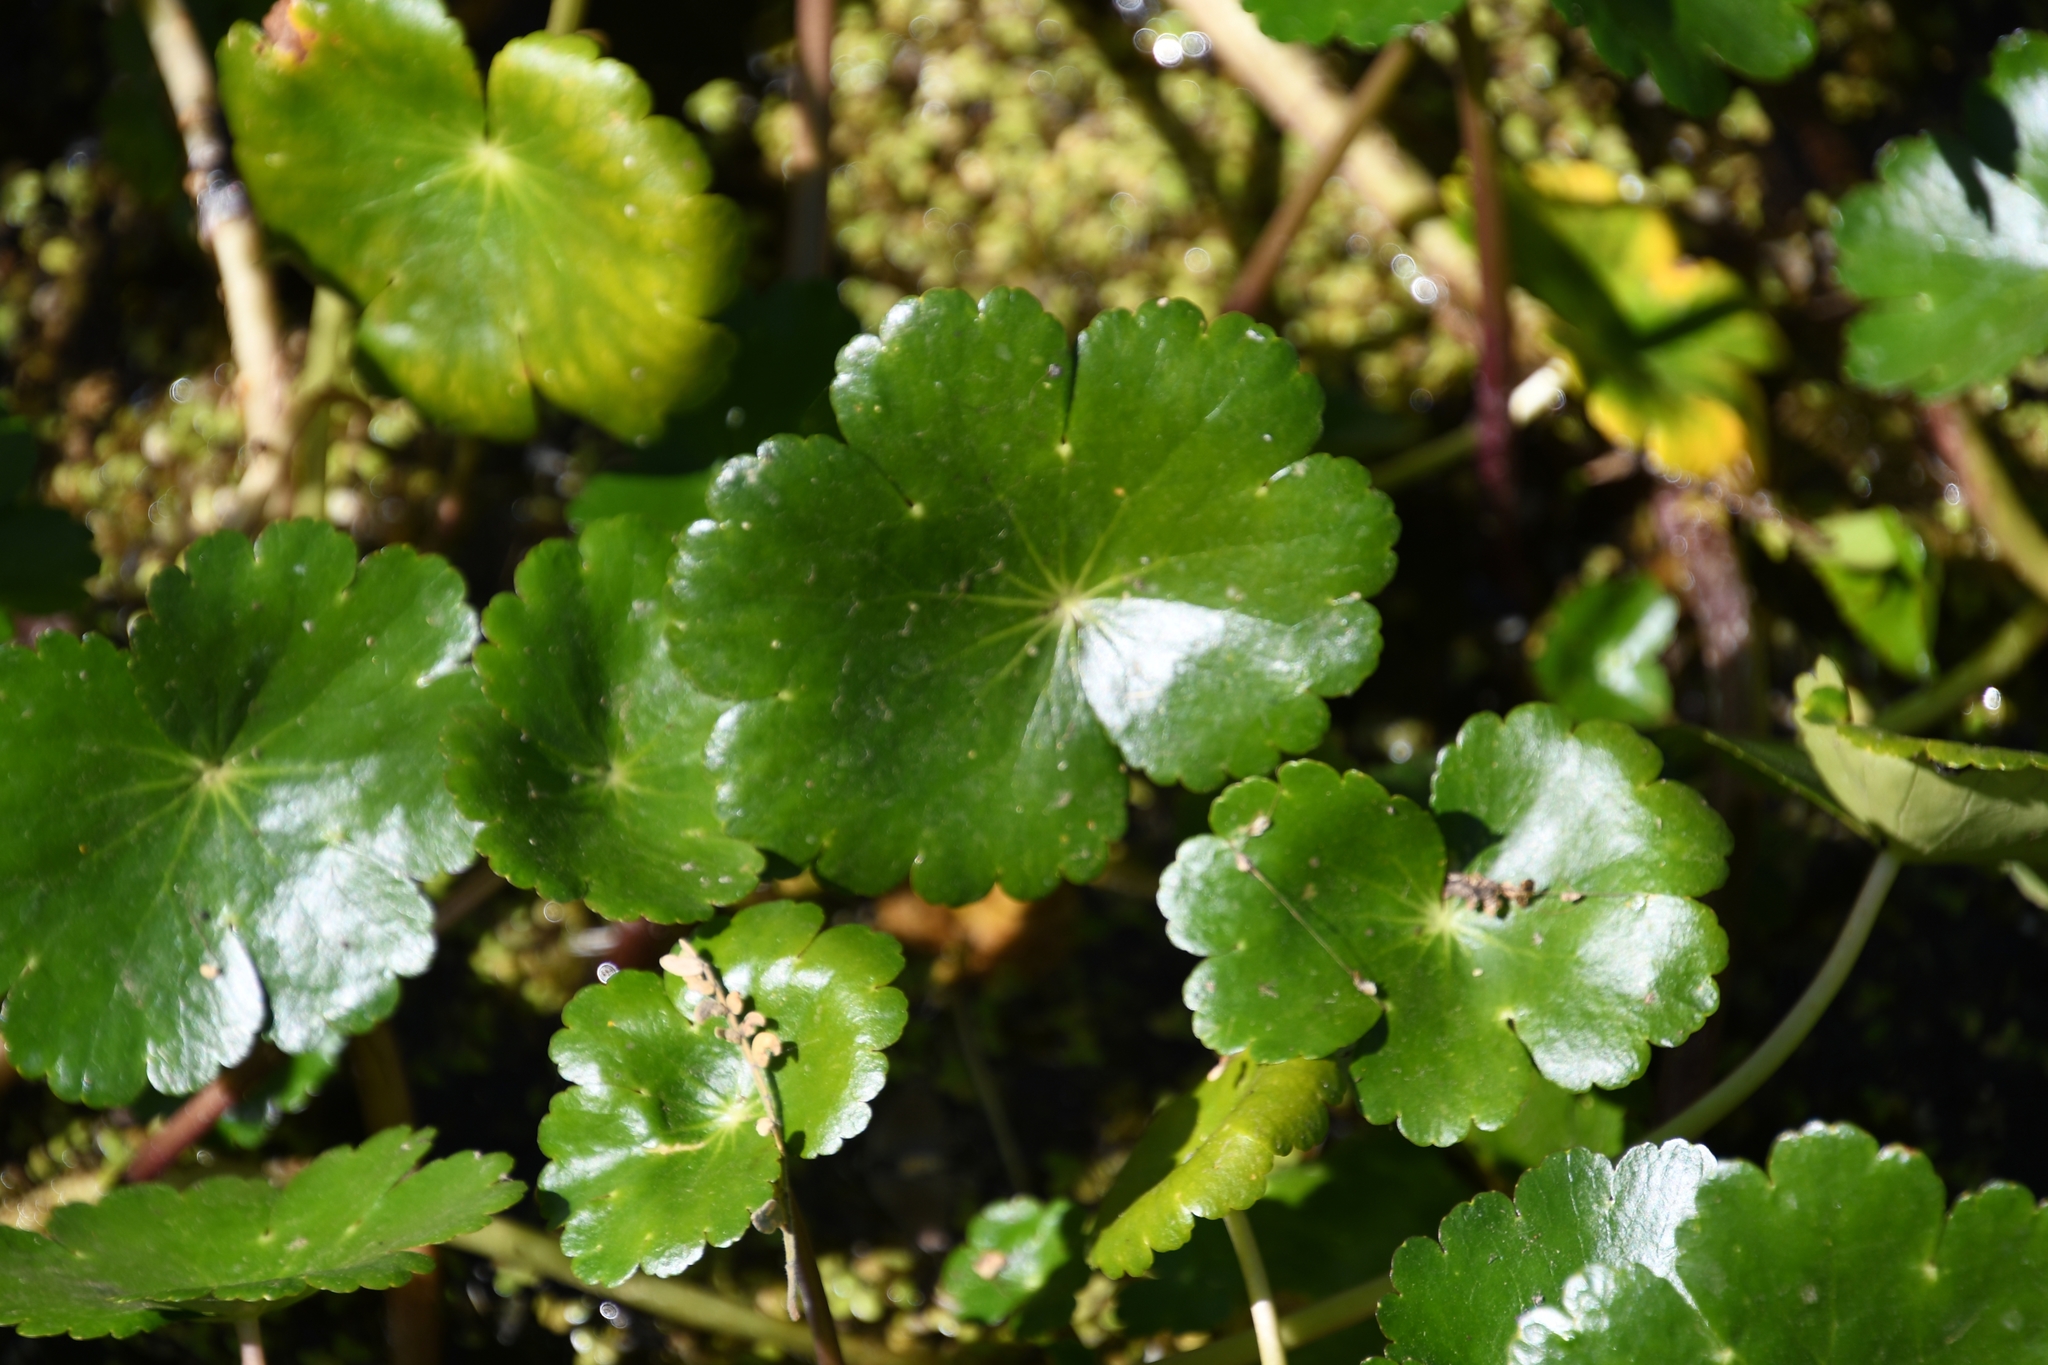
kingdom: Plantae
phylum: Tracheophyta
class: Magnoliopsida
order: Apiales
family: Araliaceae
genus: Hydrocotyle
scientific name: Hydrocotyle ranunculoides
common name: Floating pennywort
